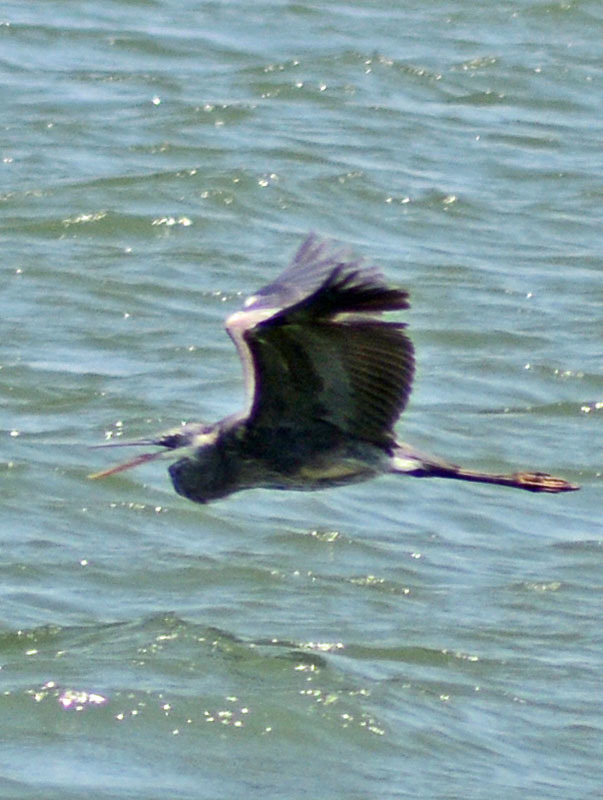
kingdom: Animalia
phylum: Chordata
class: Aves
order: Pelecaniformes
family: Ardeidae
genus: Ardea
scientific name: Ardea herodias
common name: Great blue heron
